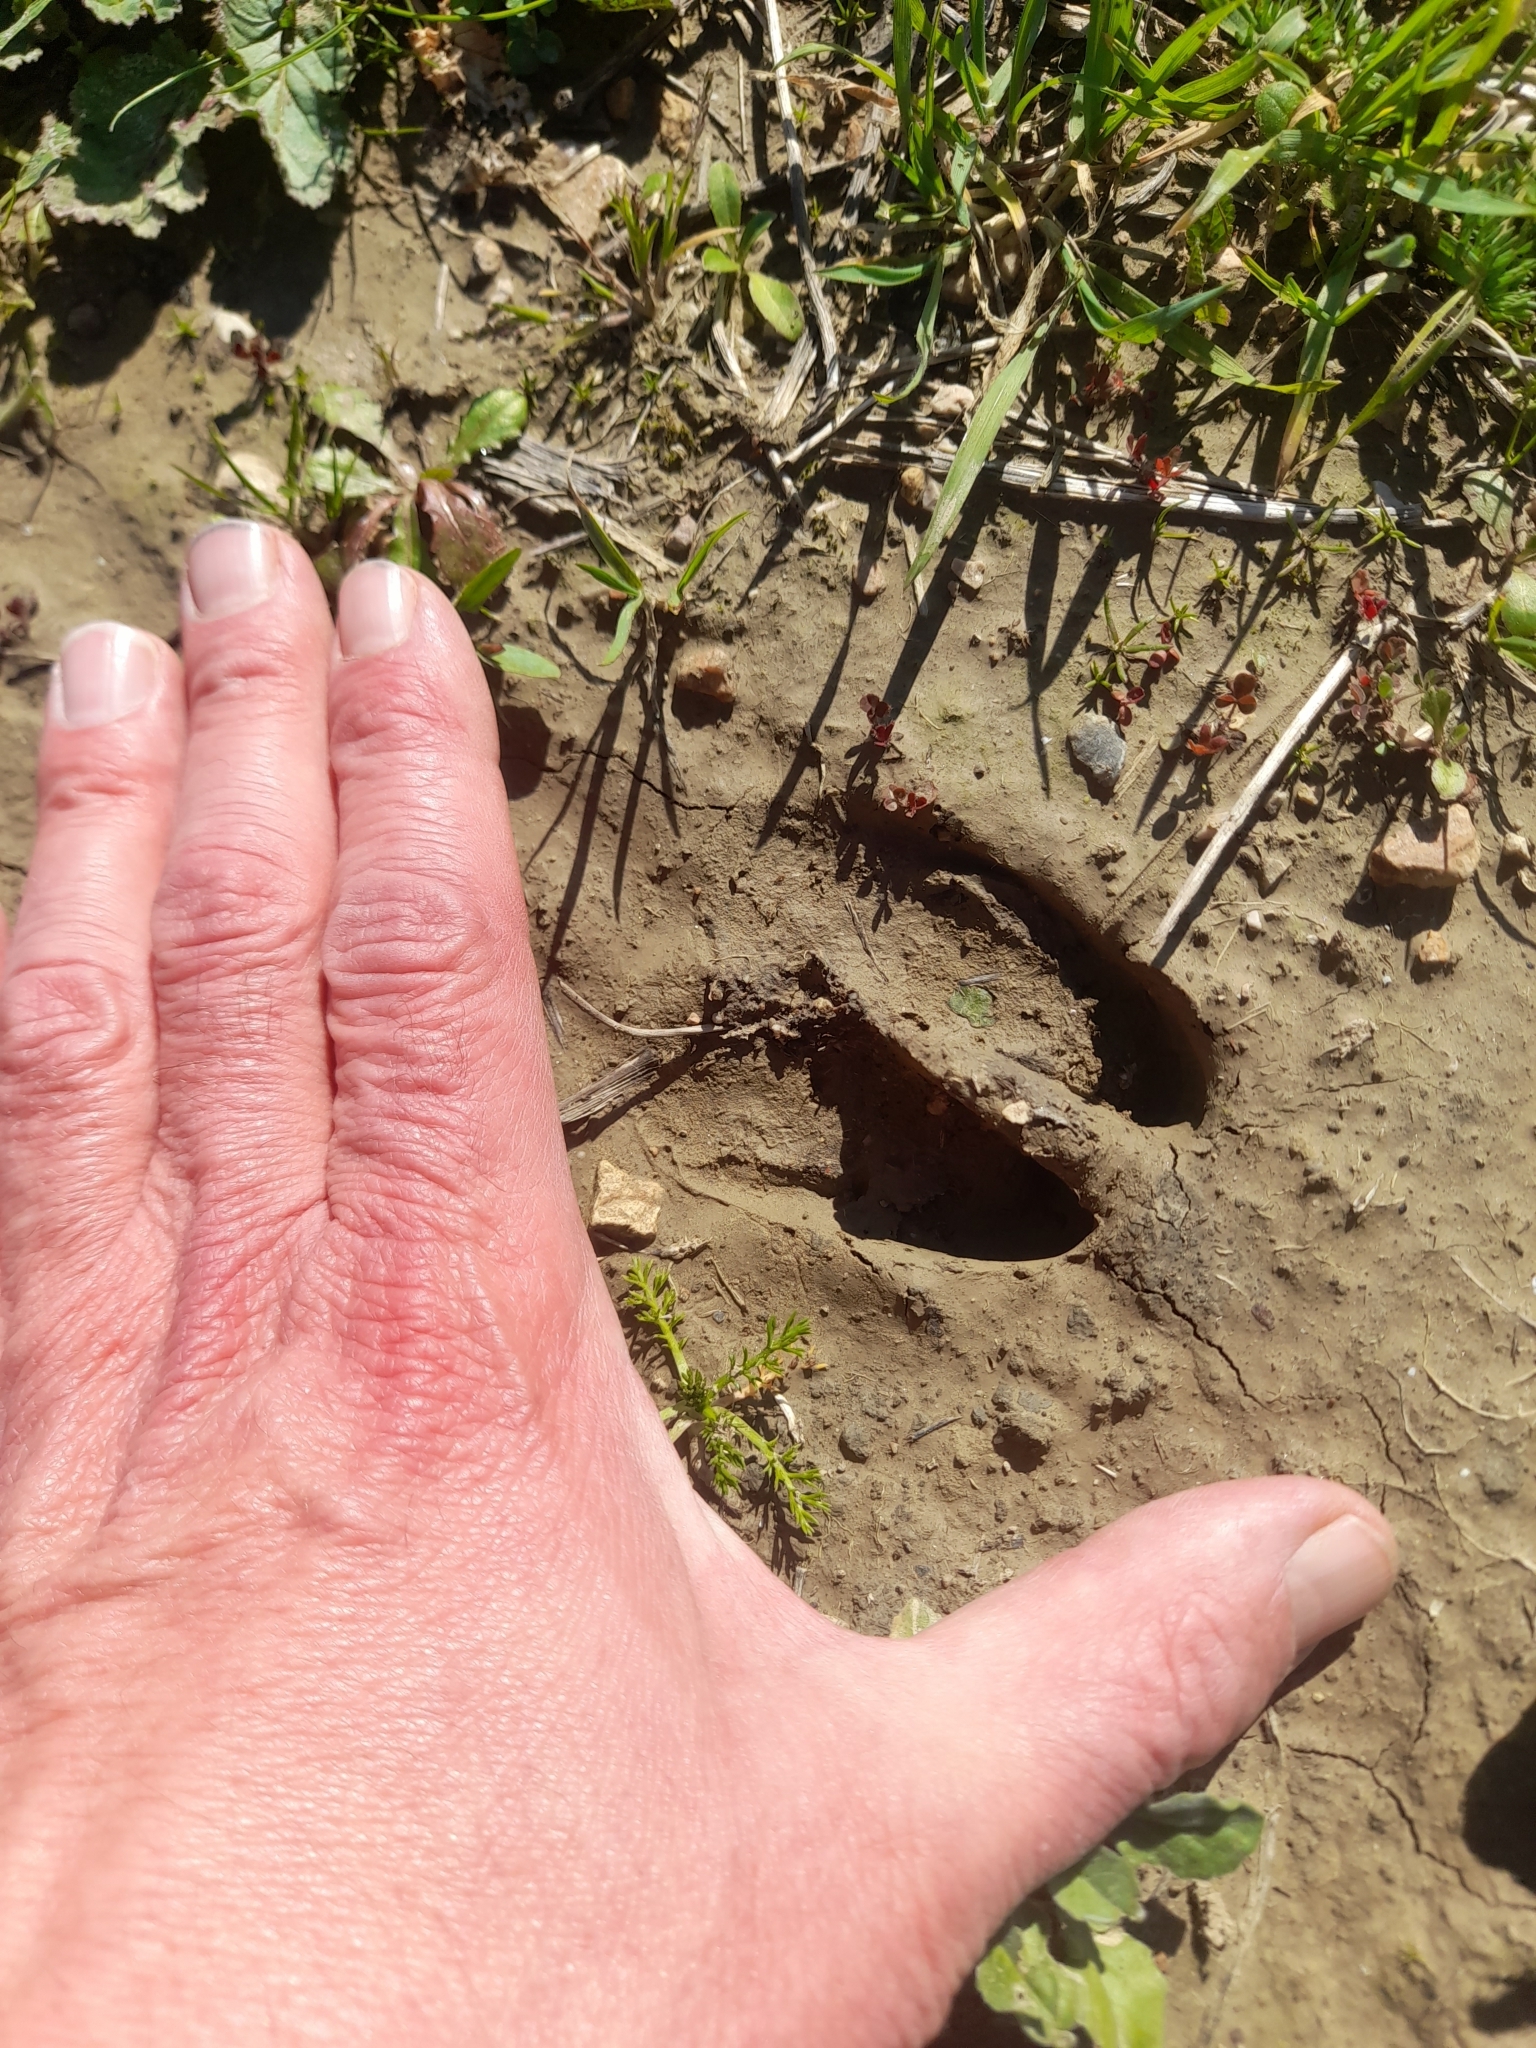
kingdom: Animalia
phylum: Chordata
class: Mammalia
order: Artiodactyla
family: Suidae
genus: Sus
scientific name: Sus scrofa
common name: Wild boar
